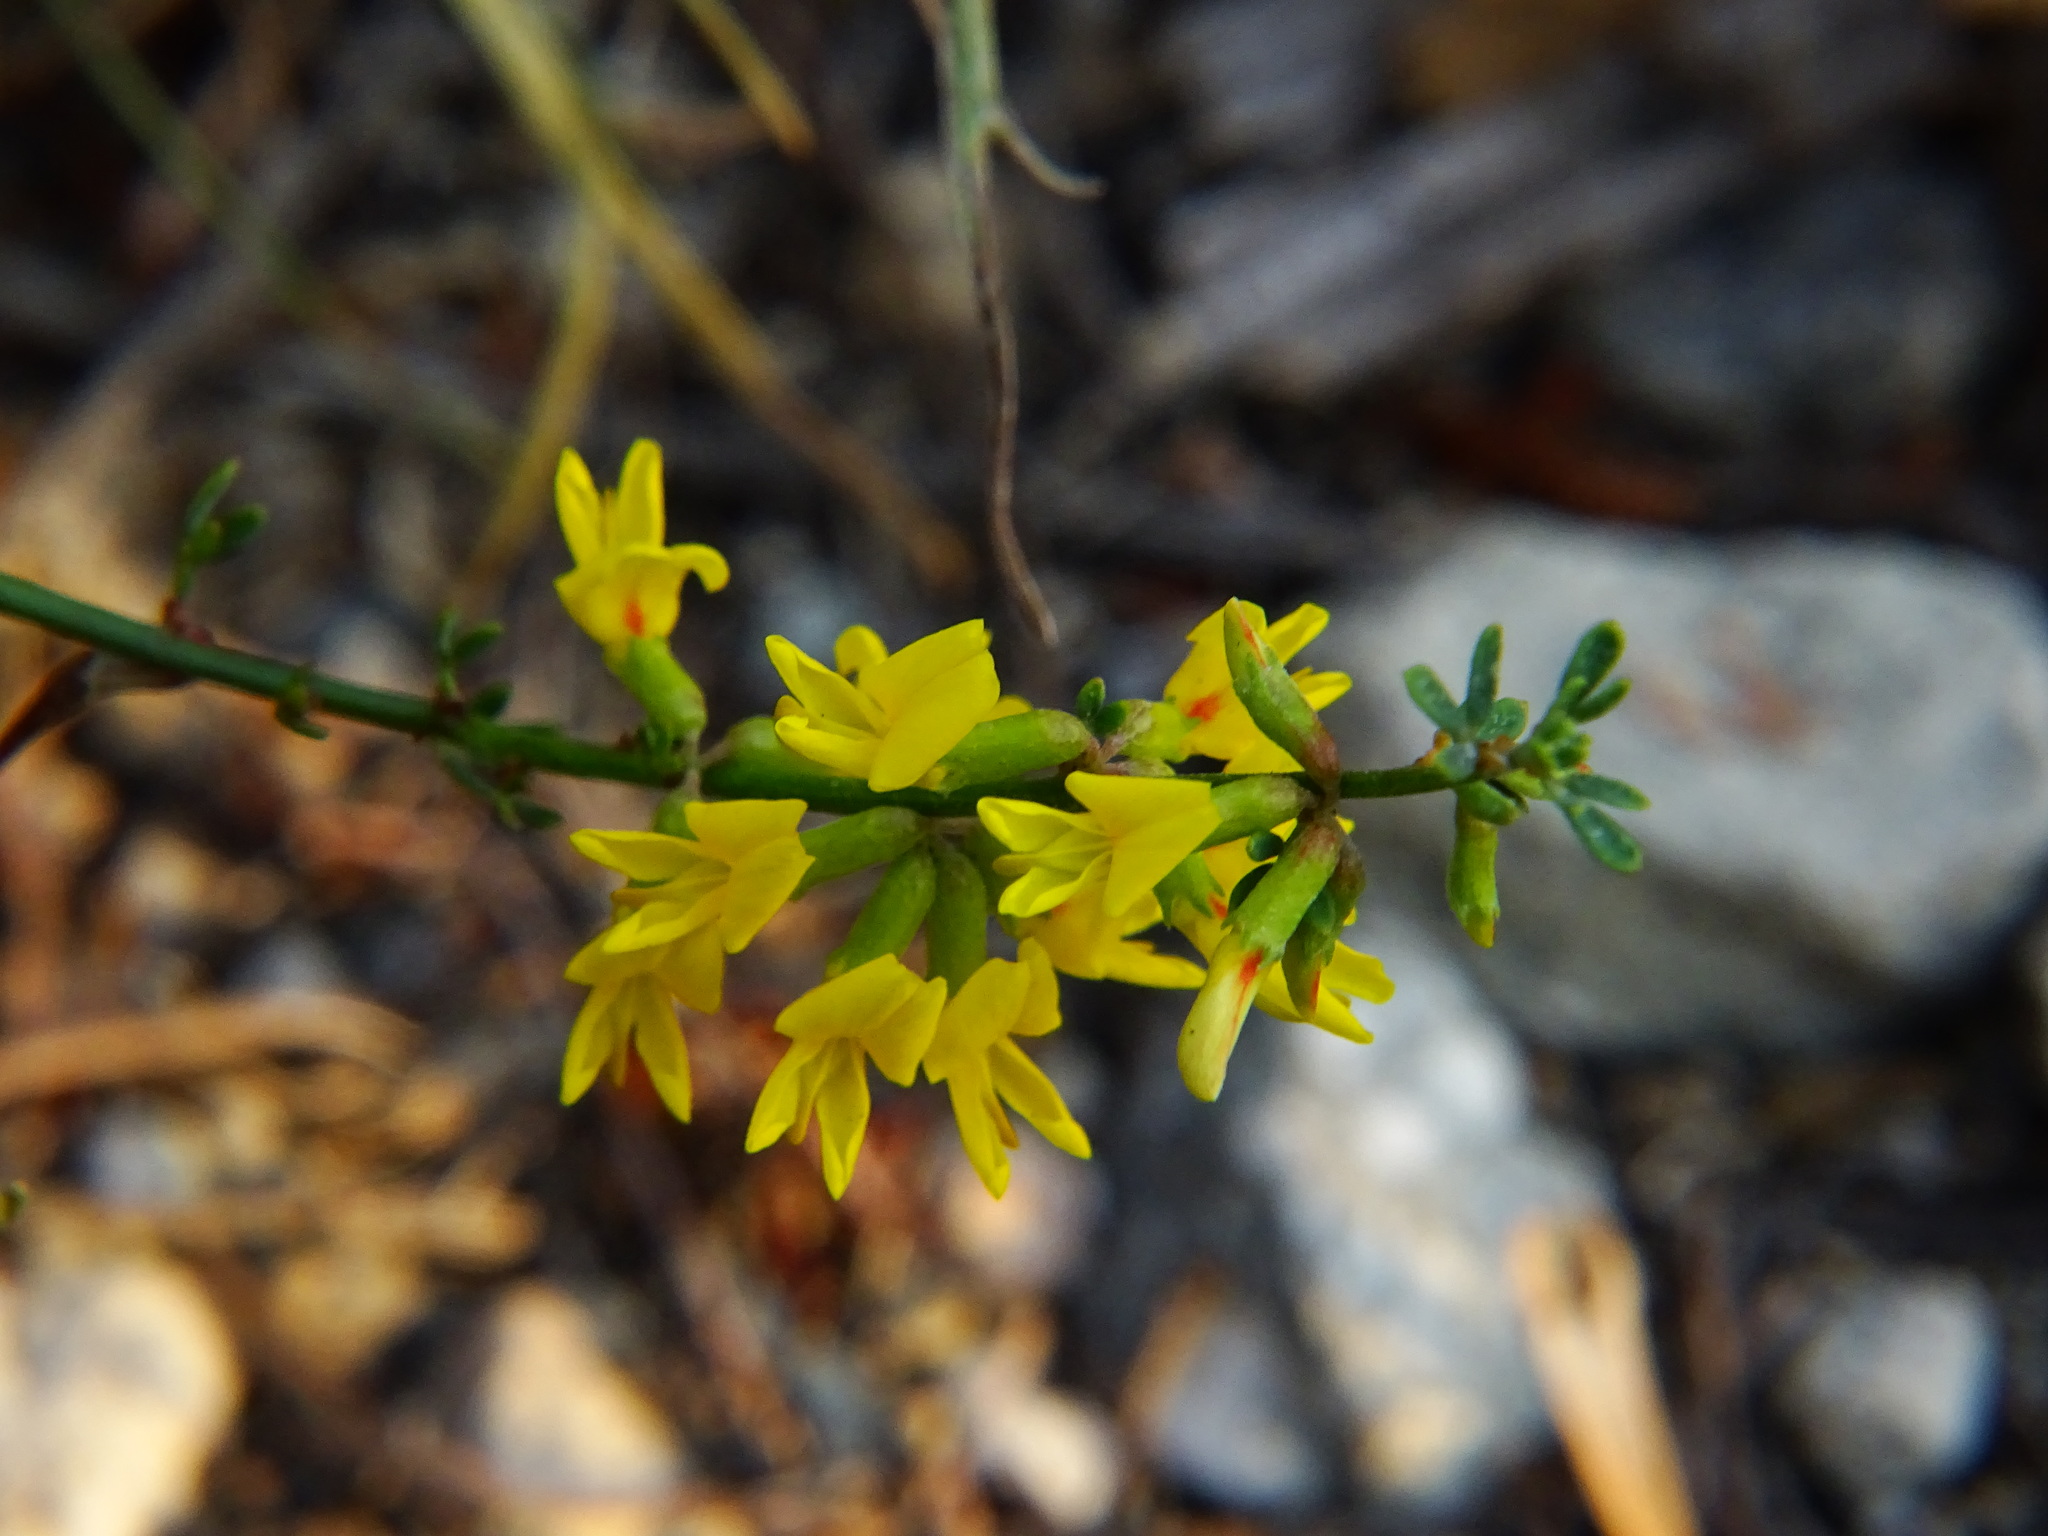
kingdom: Plantae
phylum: Tracheophyta
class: Magnoliopsida
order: Fabales
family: Fabaceae
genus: Acmispon
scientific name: Acmispon glaber
